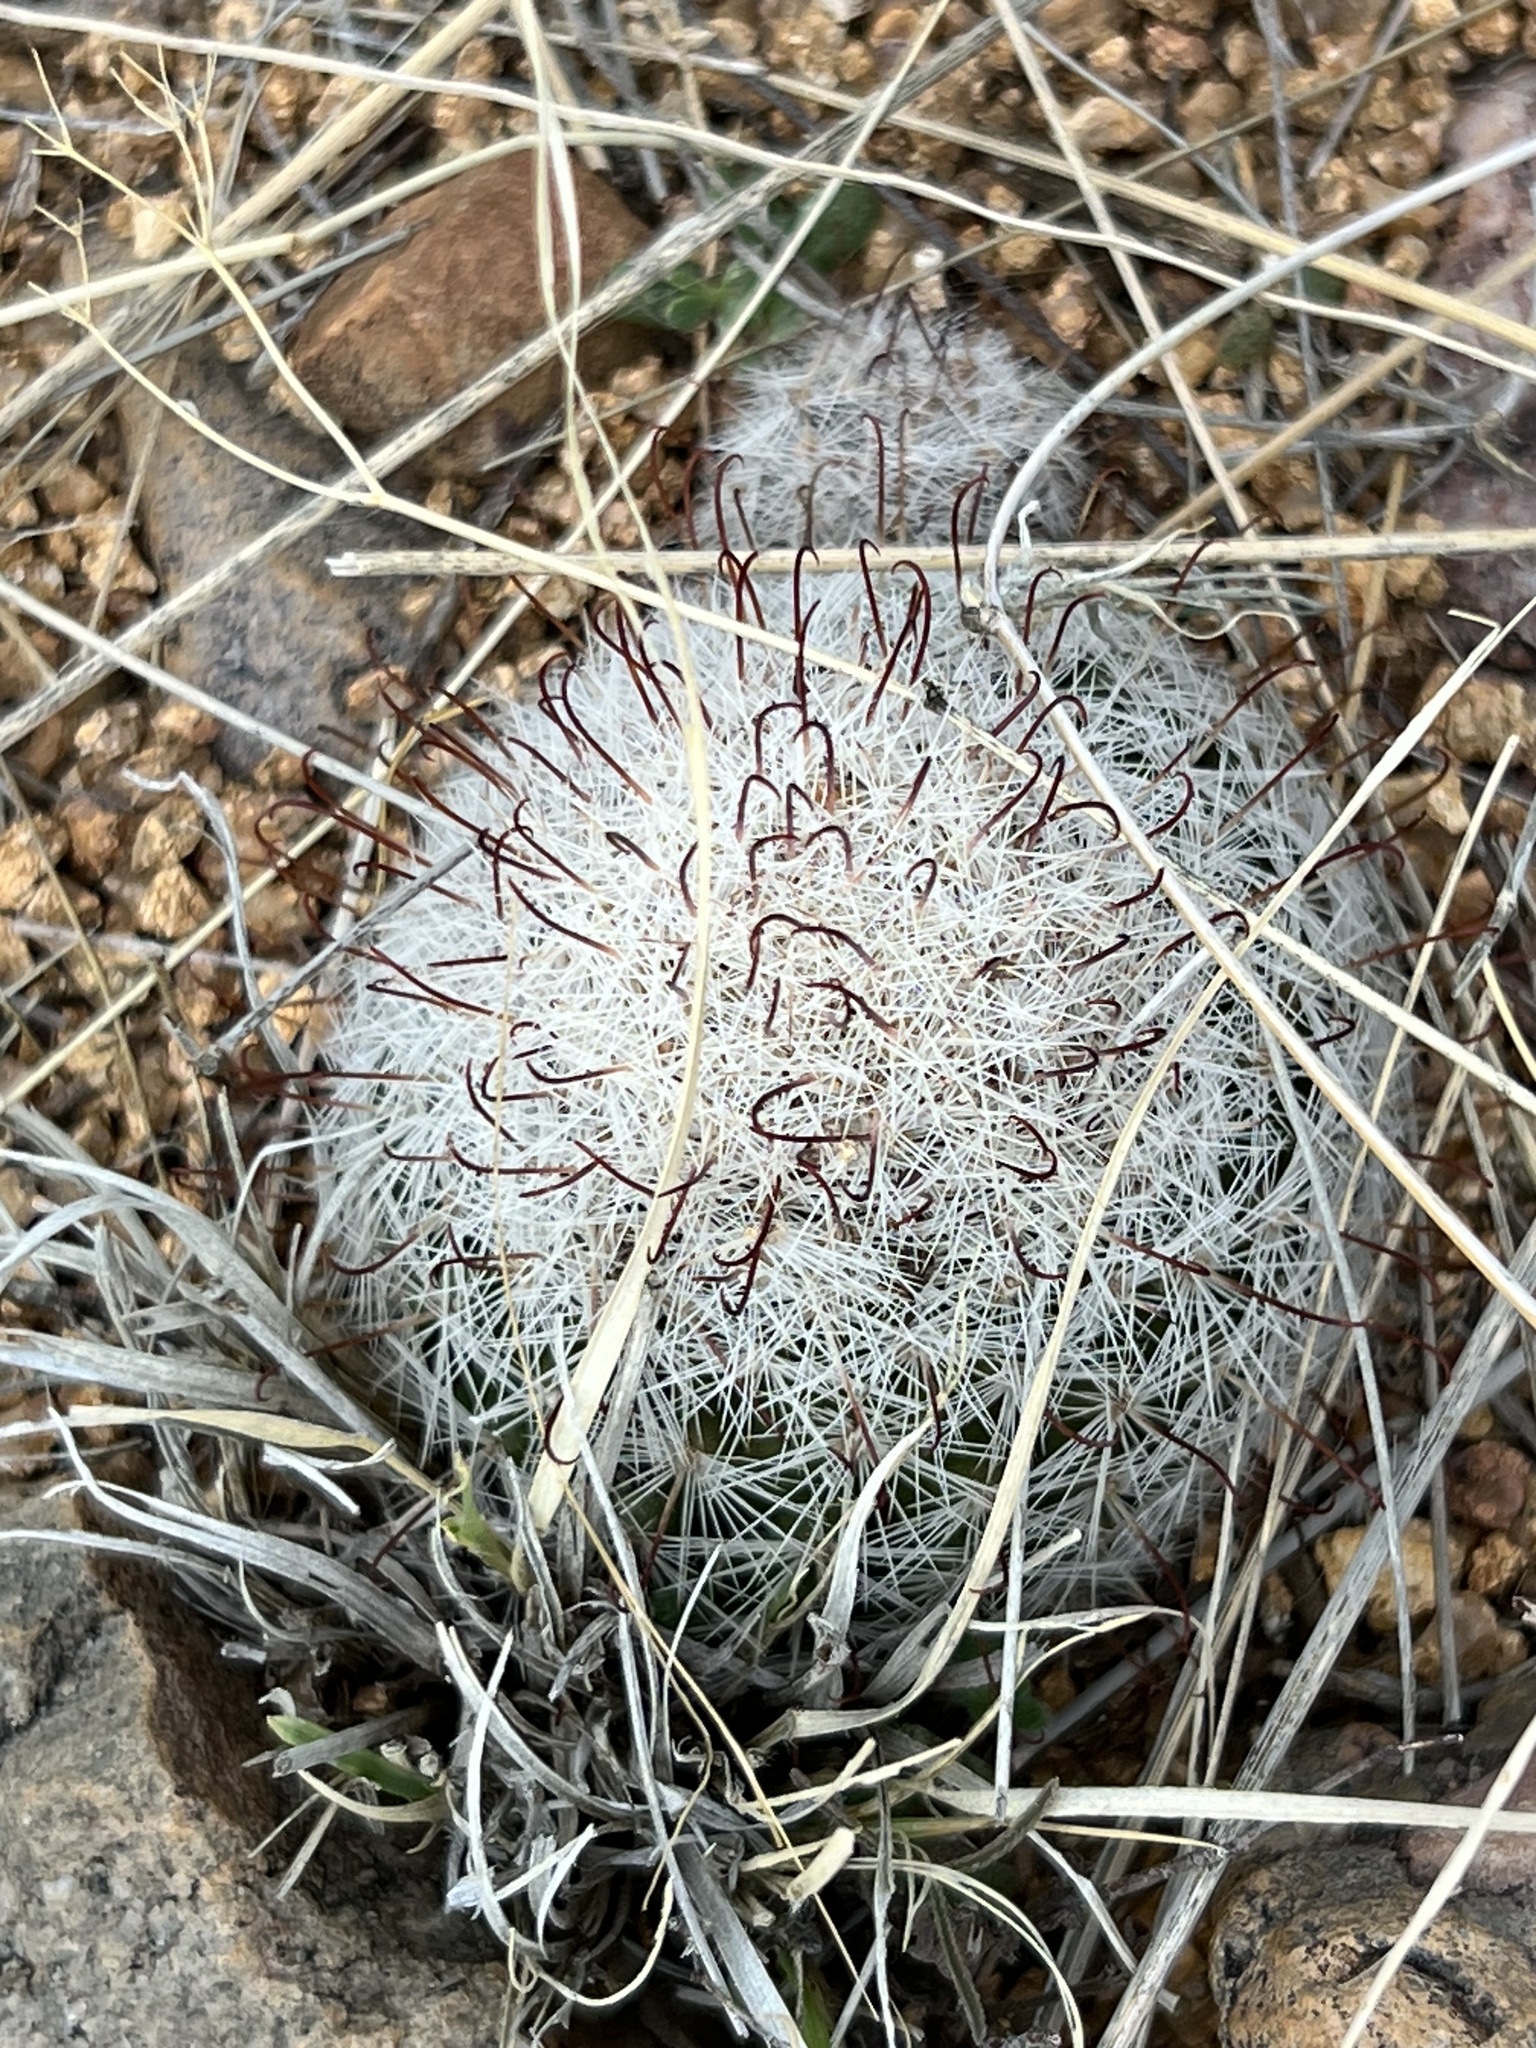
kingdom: Plantae
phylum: Tracheophyta
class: Magnoliopsida
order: Caryophyllales
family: Cactaceae
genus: Cochemiea
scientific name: Cochemiea grahamii
